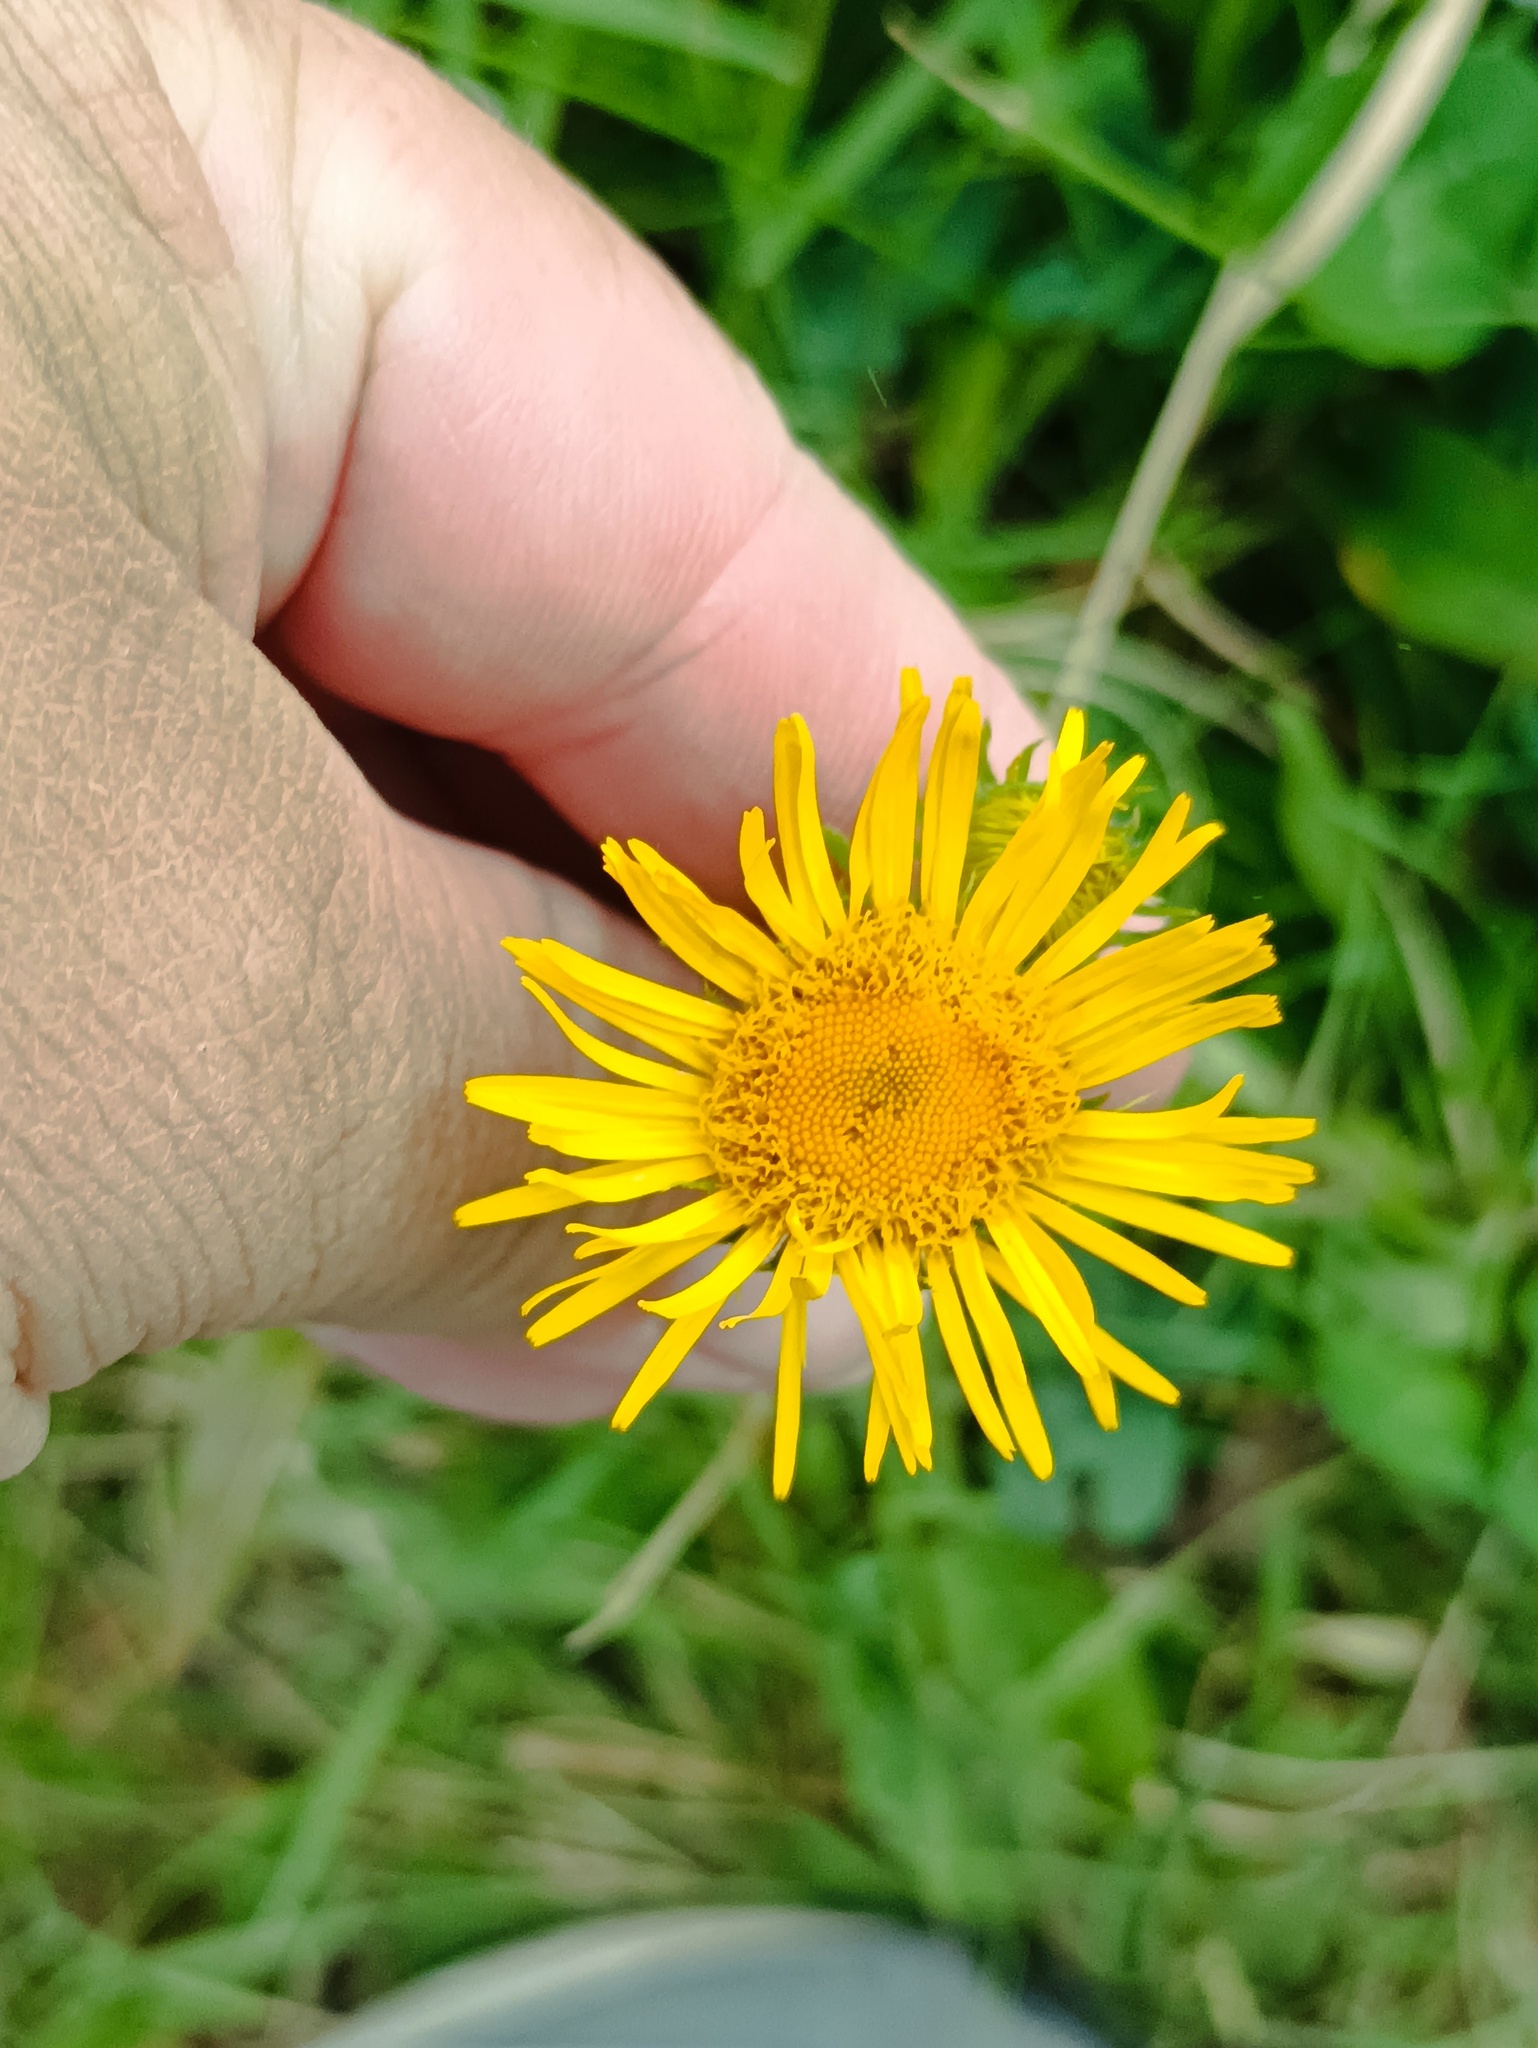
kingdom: Plantae
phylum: Tracheophyta
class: Magnoliopsida
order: Asterales
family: Asteraceae
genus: Pentanema
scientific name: Pentanema britannicum
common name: British elecampane
